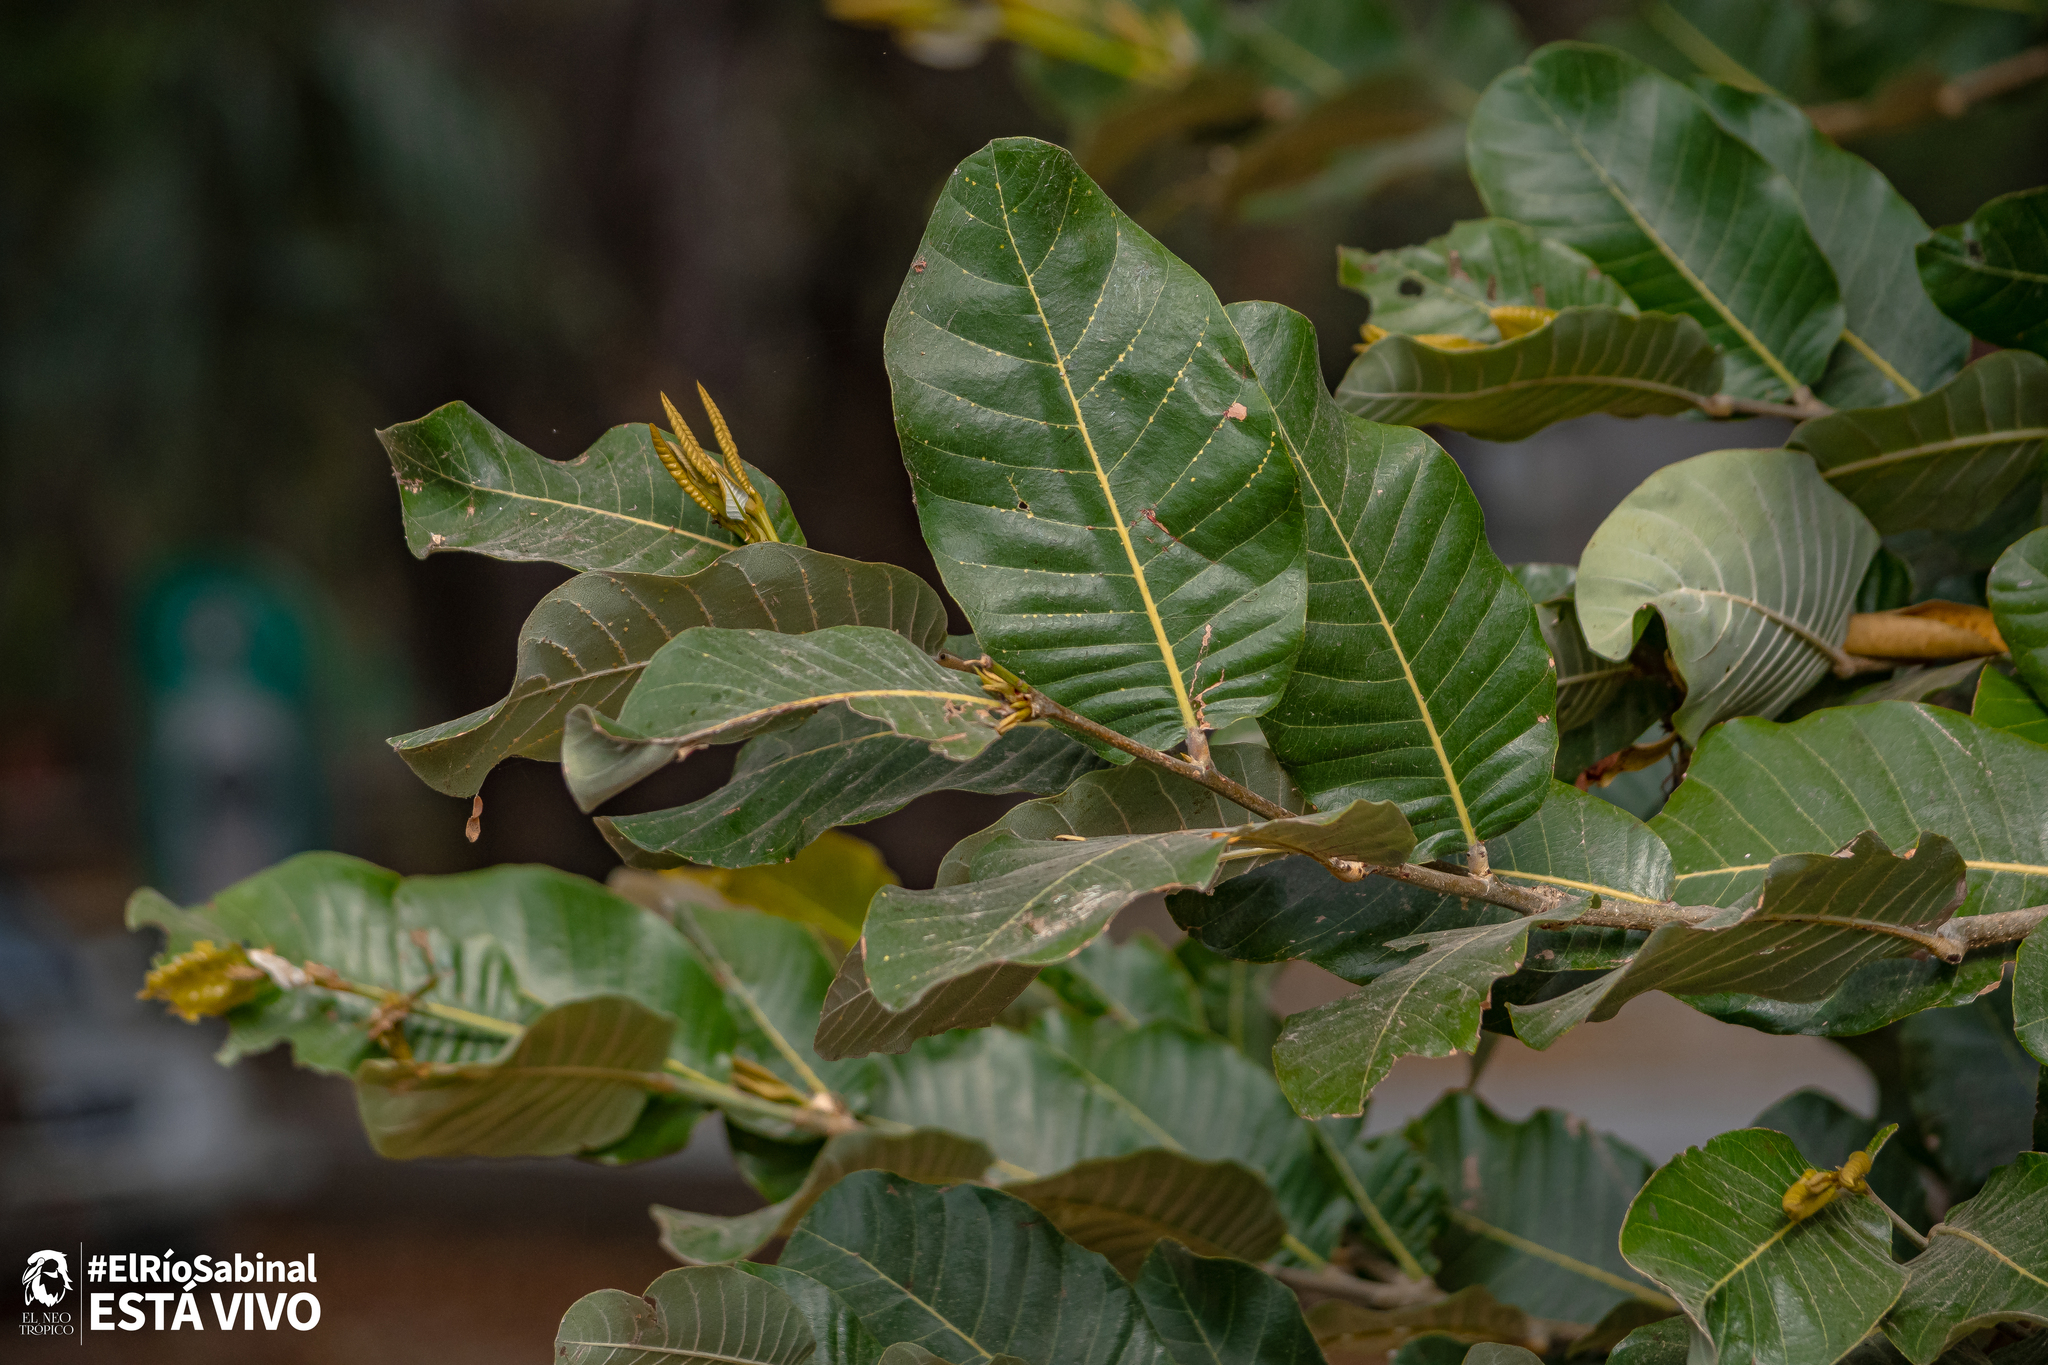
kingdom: Plantae
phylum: Tracheophyta
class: Magnoliopsida
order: Malpighiales
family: Chrysobalanaceae
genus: Microdesmia
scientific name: Microdesmia arborea
